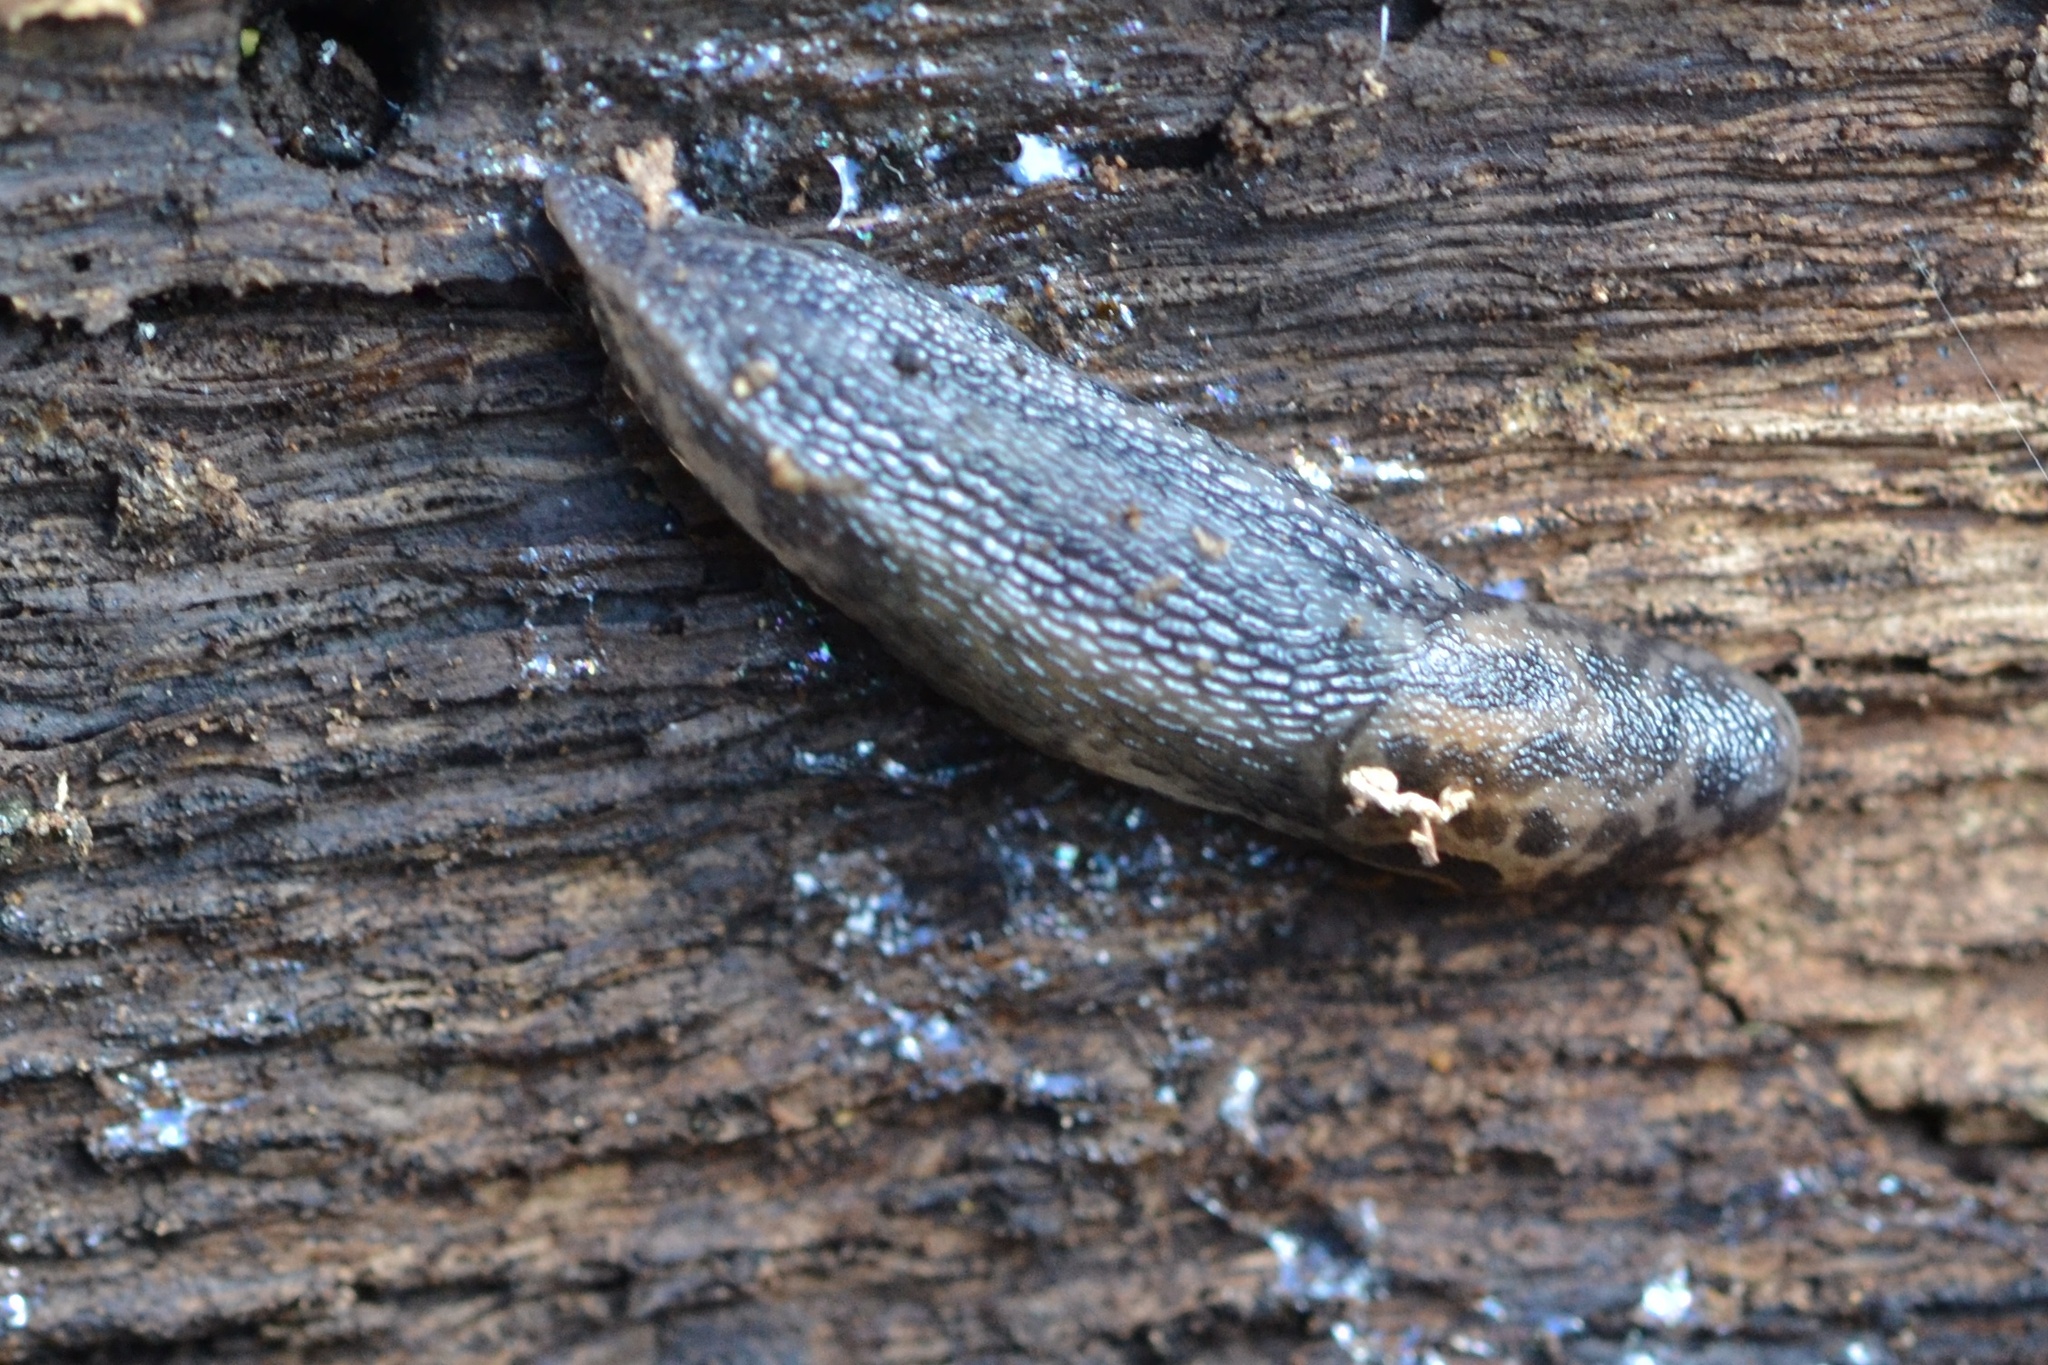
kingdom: Animalia
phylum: Mollusca
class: Gastropoda
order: Stylommatophora
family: Limacidae
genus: Limax
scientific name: Limax maximus
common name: Great grey slug
